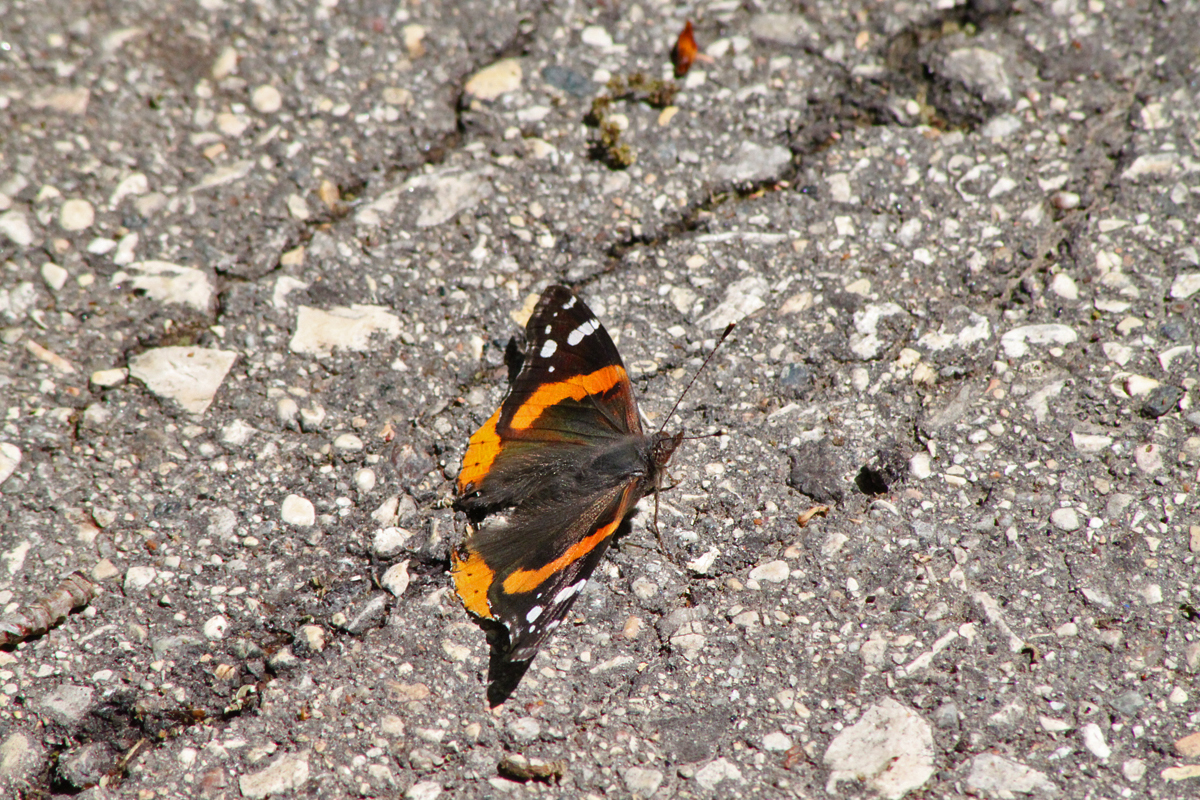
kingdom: Animalia
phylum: Arthropoda
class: Insecta
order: Lepidoptera
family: Nymphalidae
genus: Vanessa
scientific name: Vanessa atalanta
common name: Red admiral
